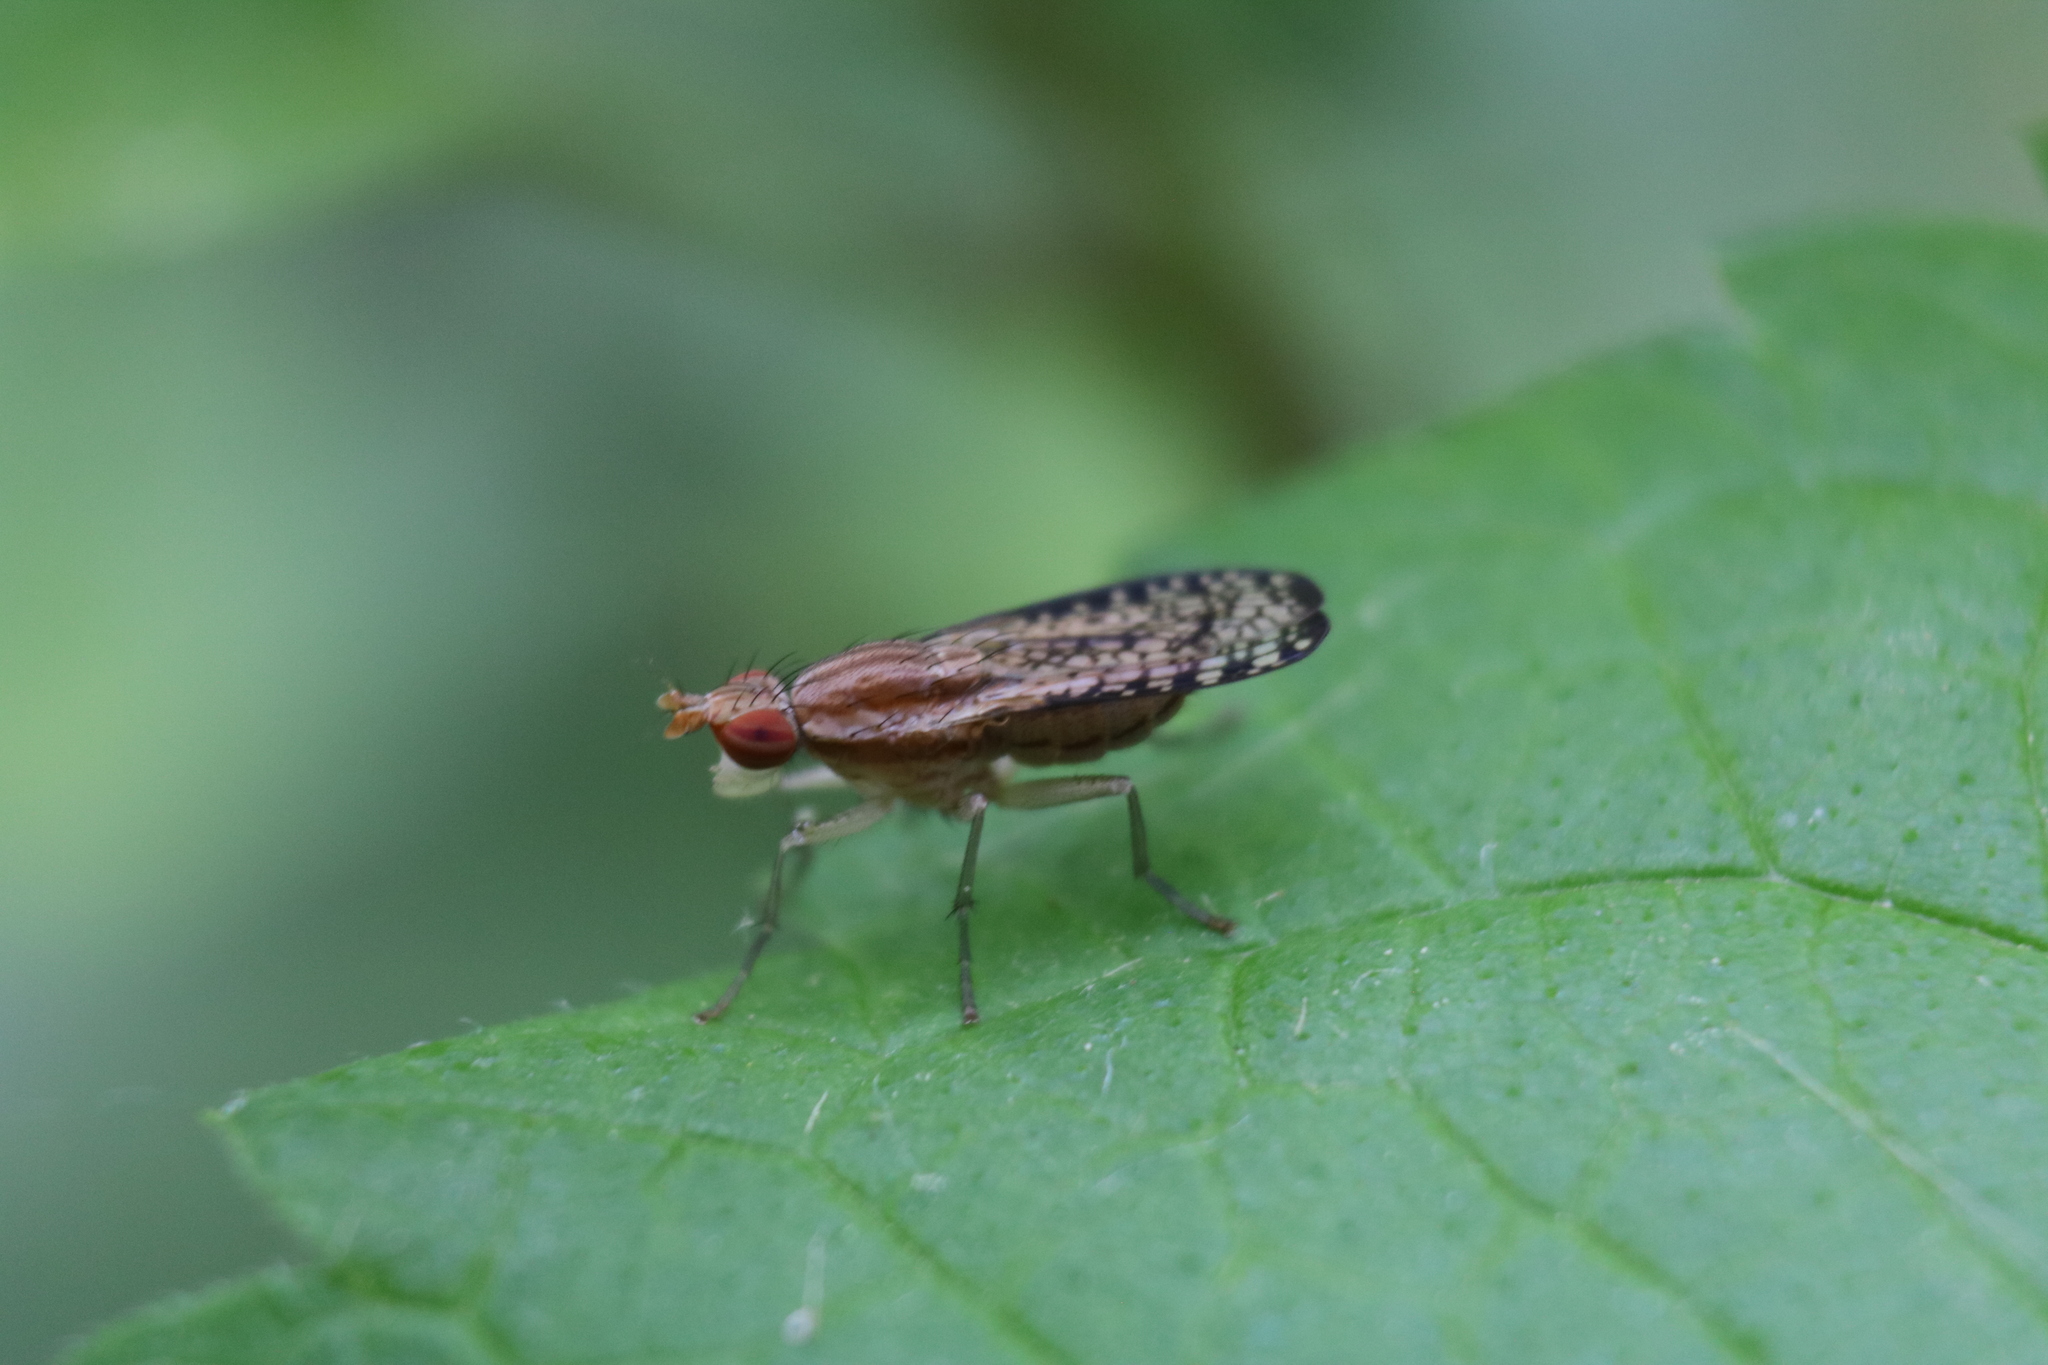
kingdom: Animalia
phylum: Arthropoda
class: Insecta
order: Diptera
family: Sciomyzidae
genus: Trypetoptera
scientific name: Trypetoptera canadensis
